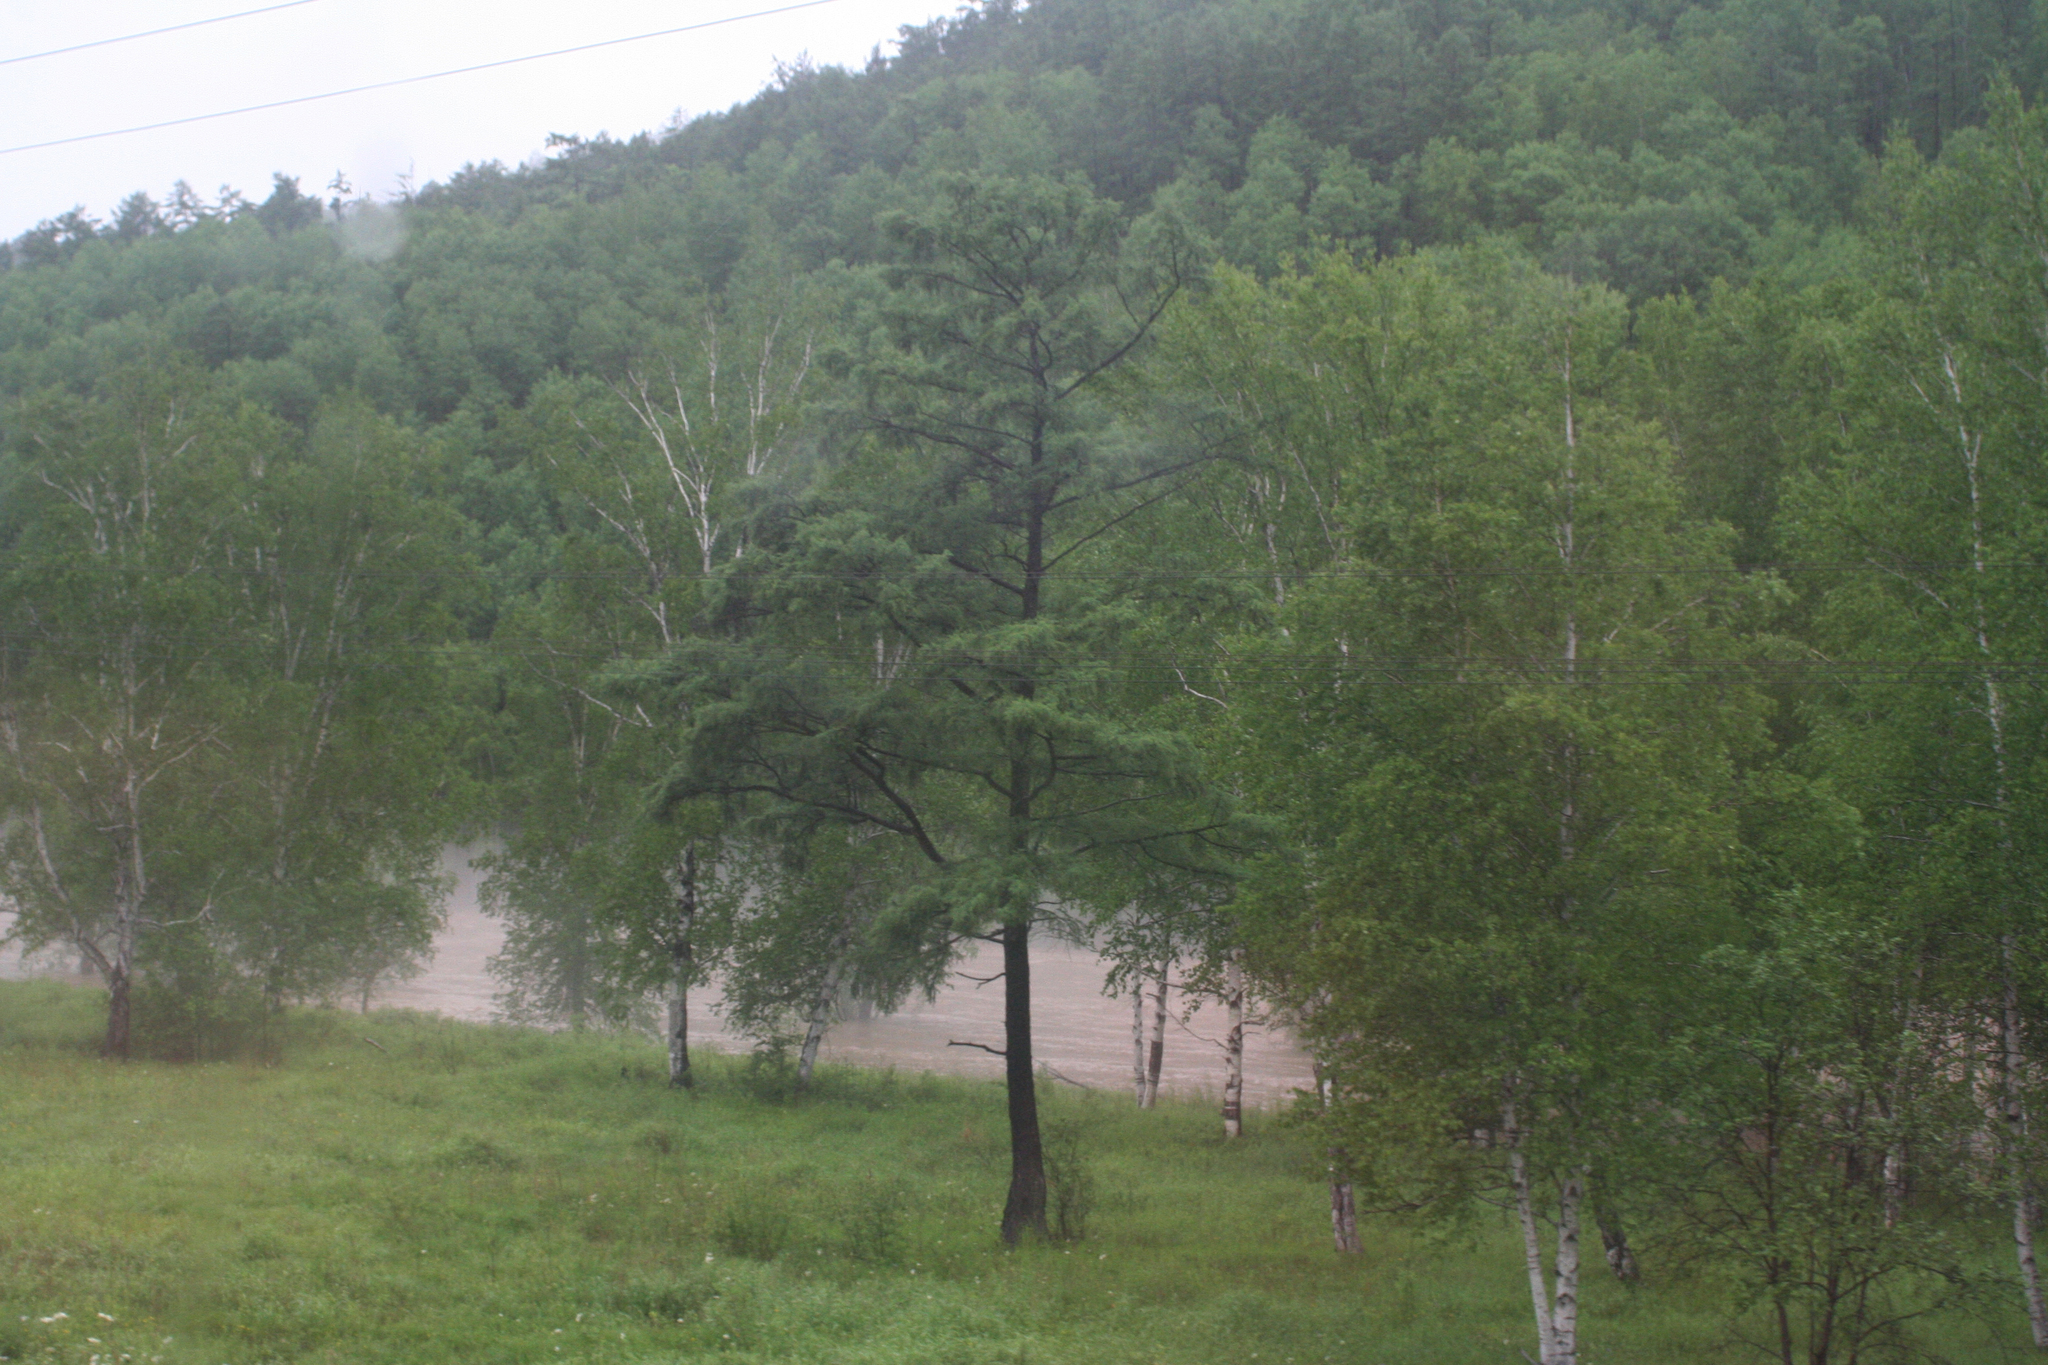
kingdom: Plantae
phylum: Tracheophyta
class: Pinopsida
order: Pinales
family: Pinaceae
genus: Larix
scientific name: Larix gmelinii
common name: Dahurian larch
